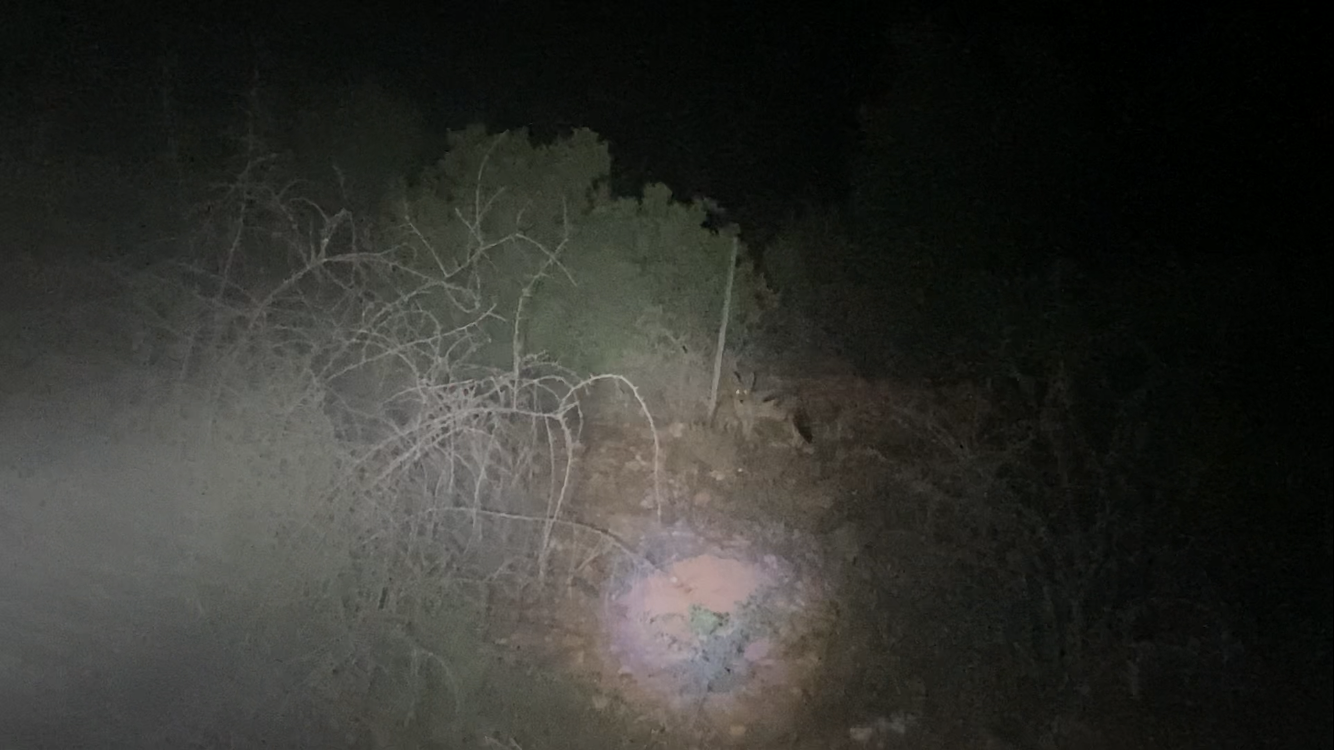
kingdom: Animalia
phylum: Chordata
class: Mammalia
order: Carnivora
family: Canidae
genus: Lupulella
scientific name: Lupulella
